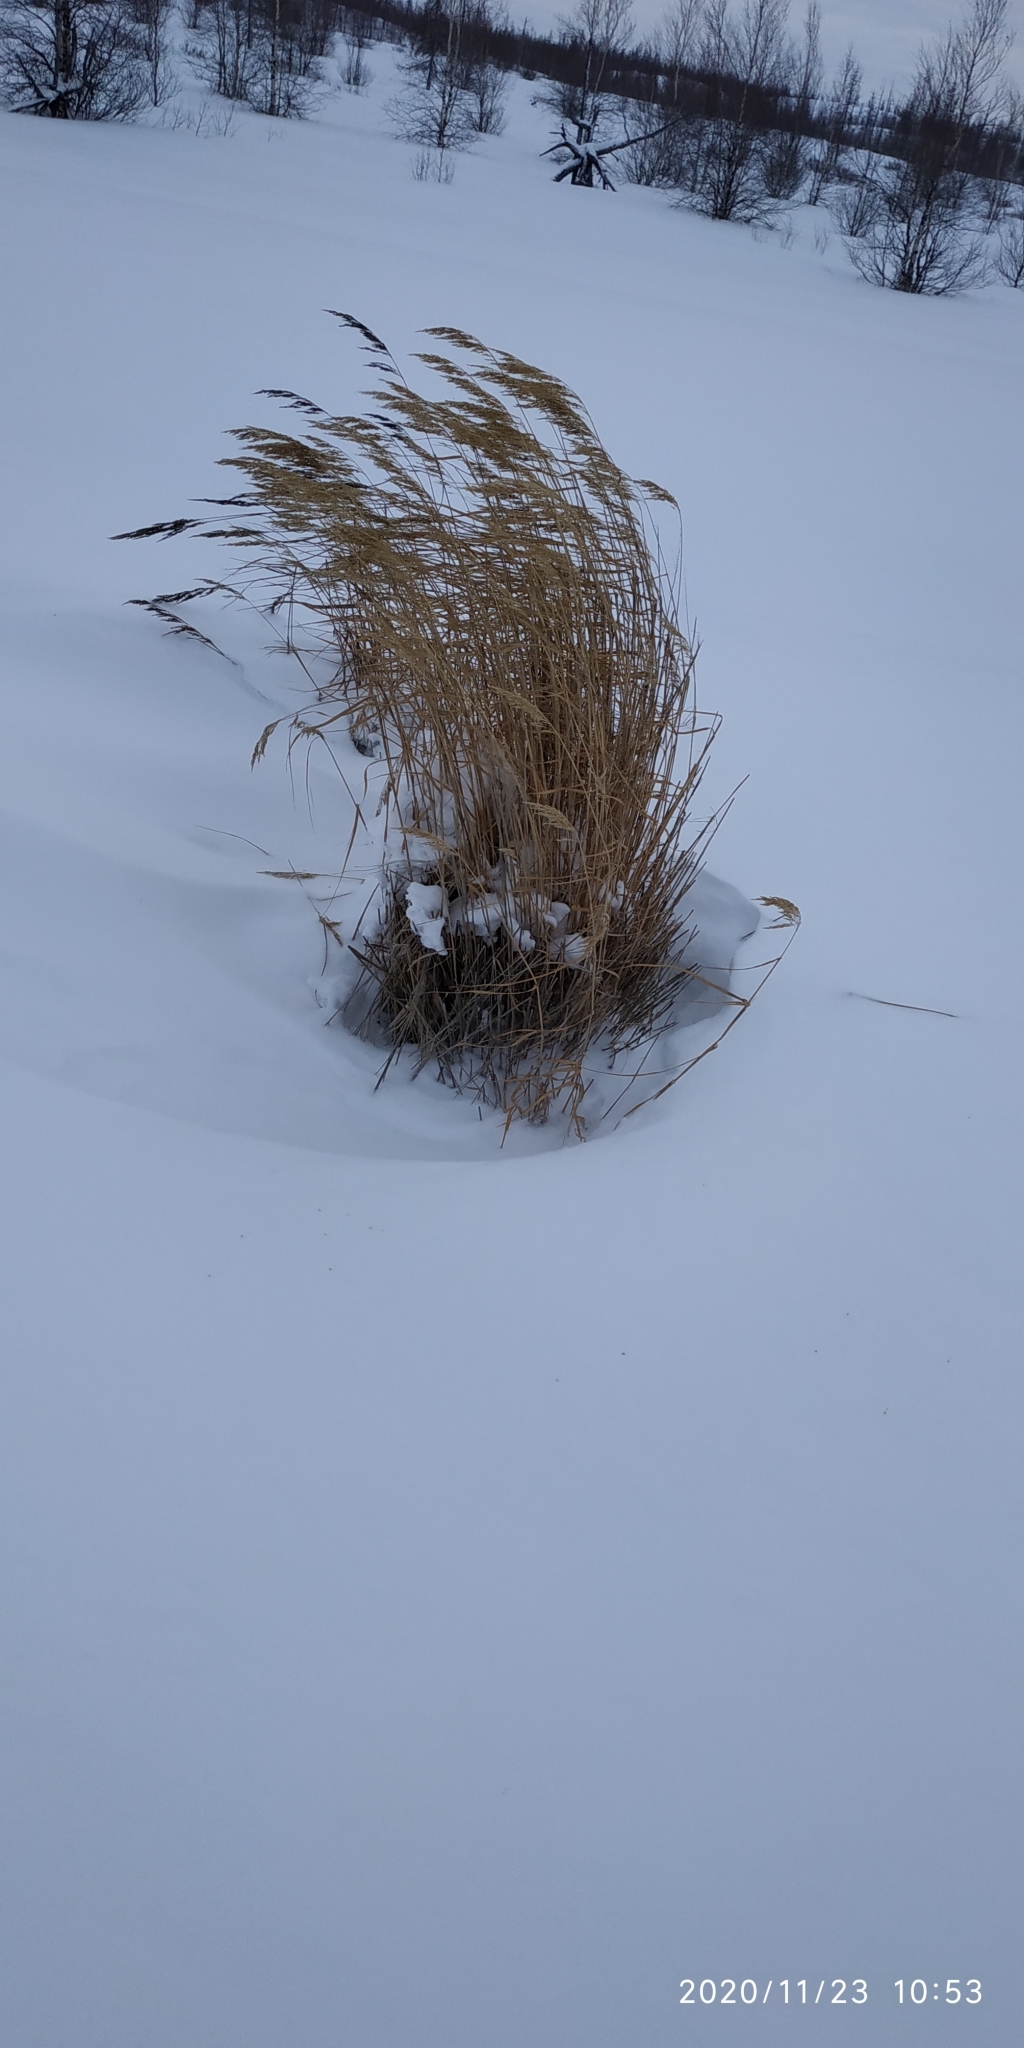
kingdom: Plantae
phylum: Tracheophyta
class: Liliopsida
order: Poales
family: Poaceae
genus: Calamagrostis
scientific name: Calamagrostis purpurea
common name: Scandinavian small-reed
